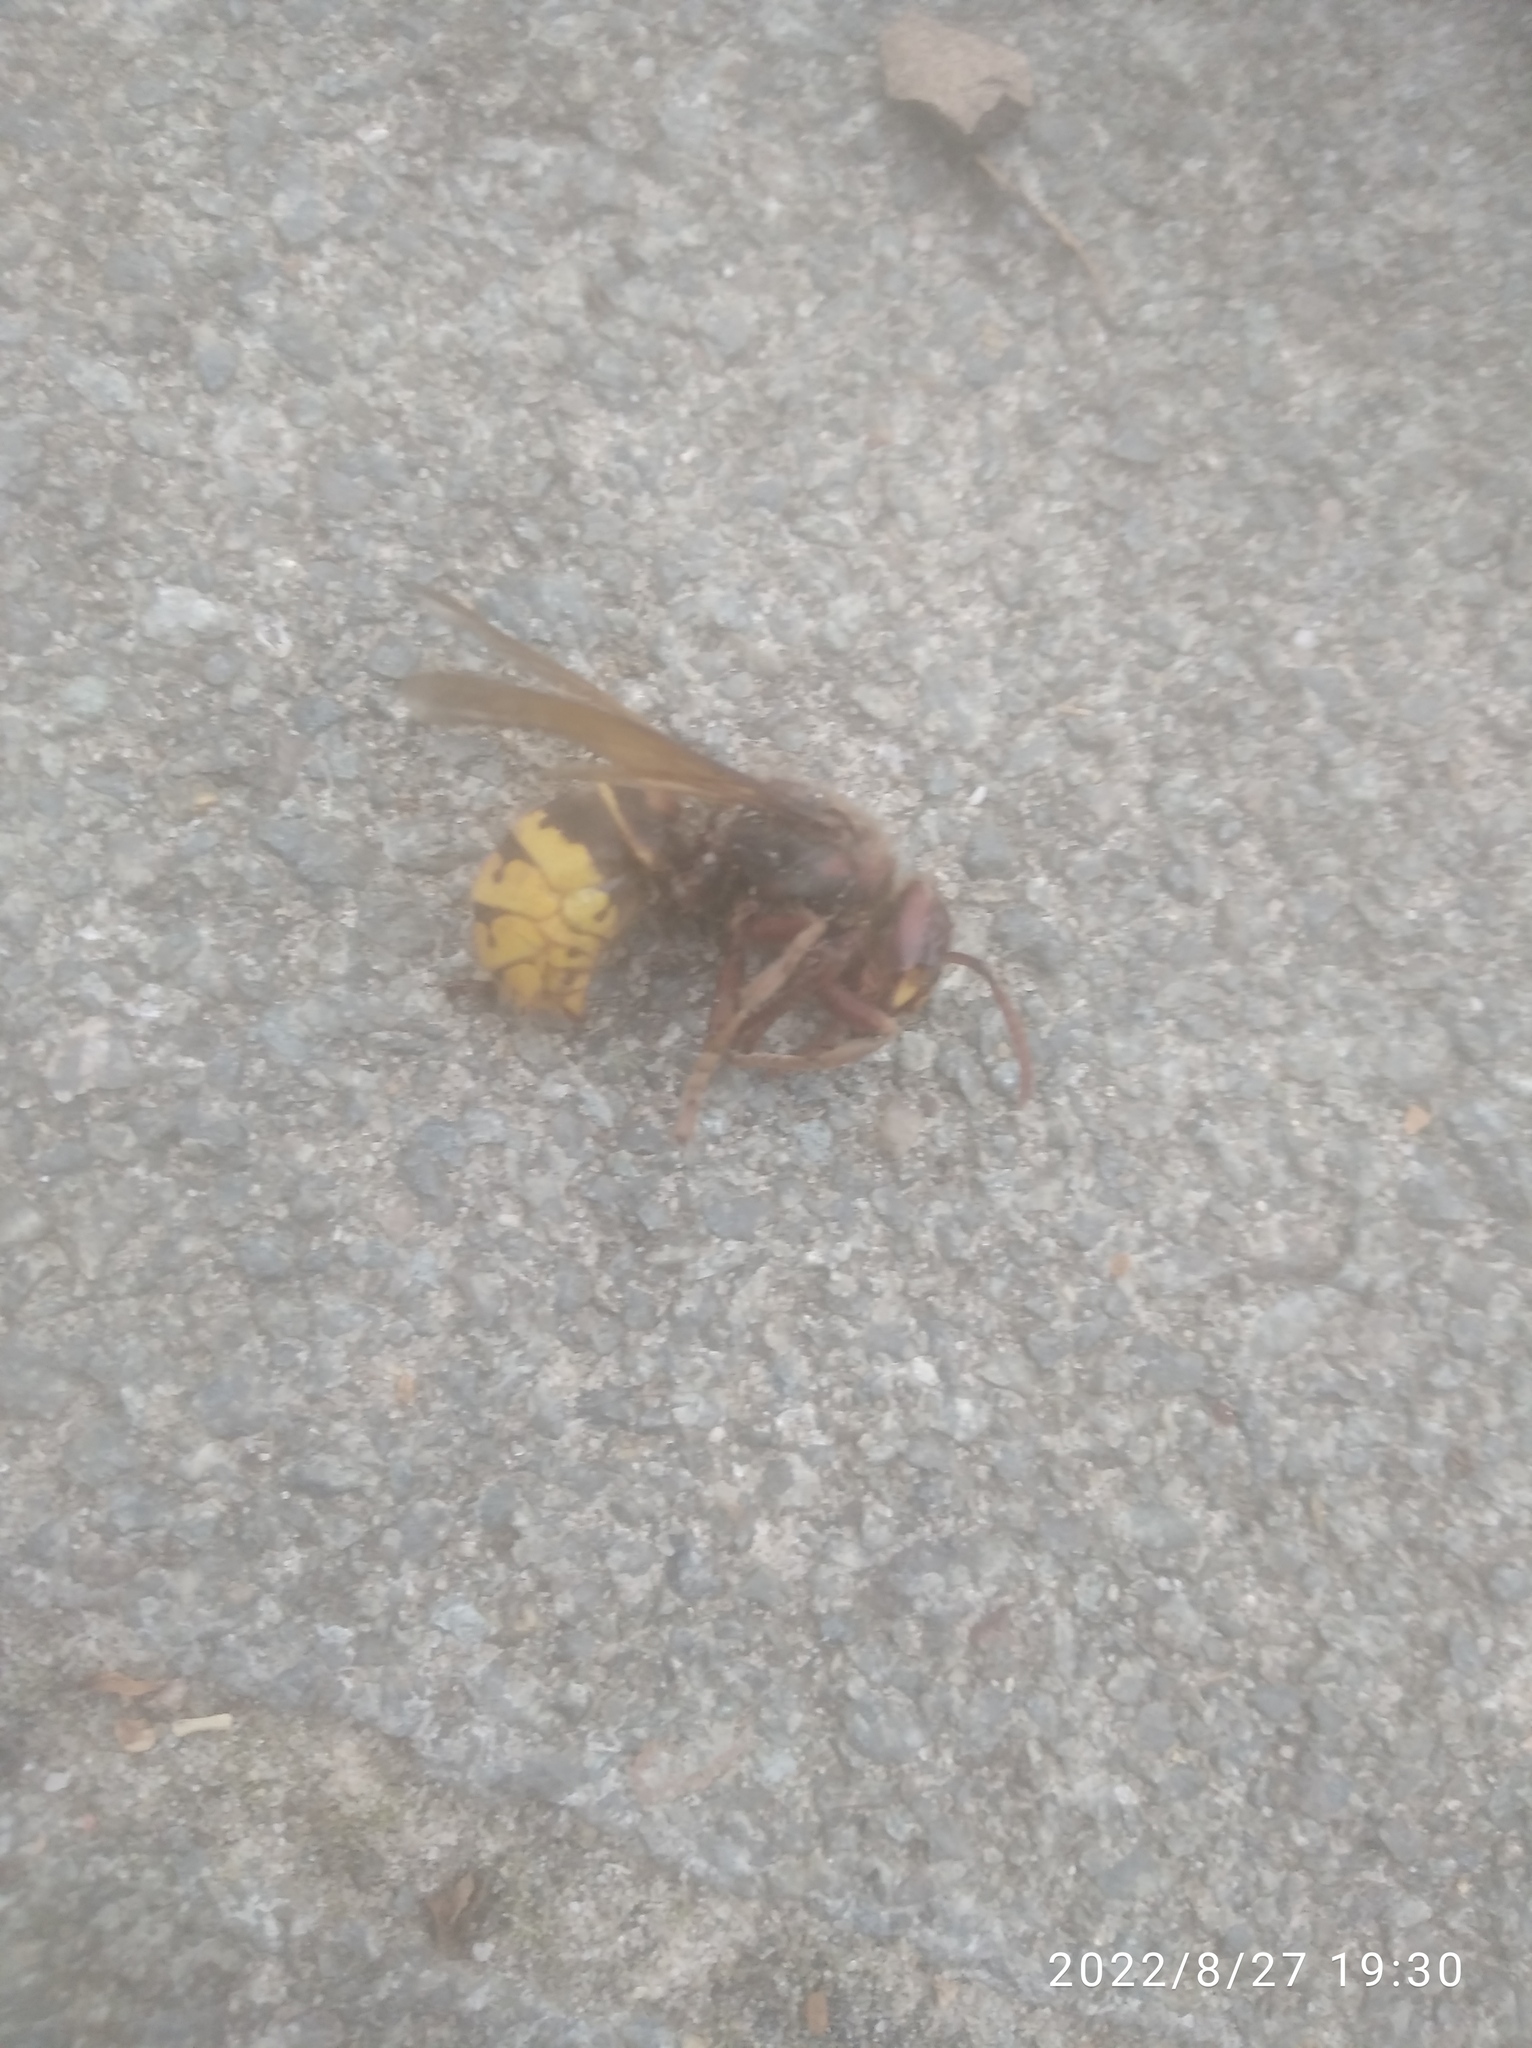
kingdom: Animalia
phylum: Arthropoda
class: Insecta
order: Hymenoptera
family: Vespidae
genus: Vespa
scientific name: Vespa crabro
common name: Hornet
